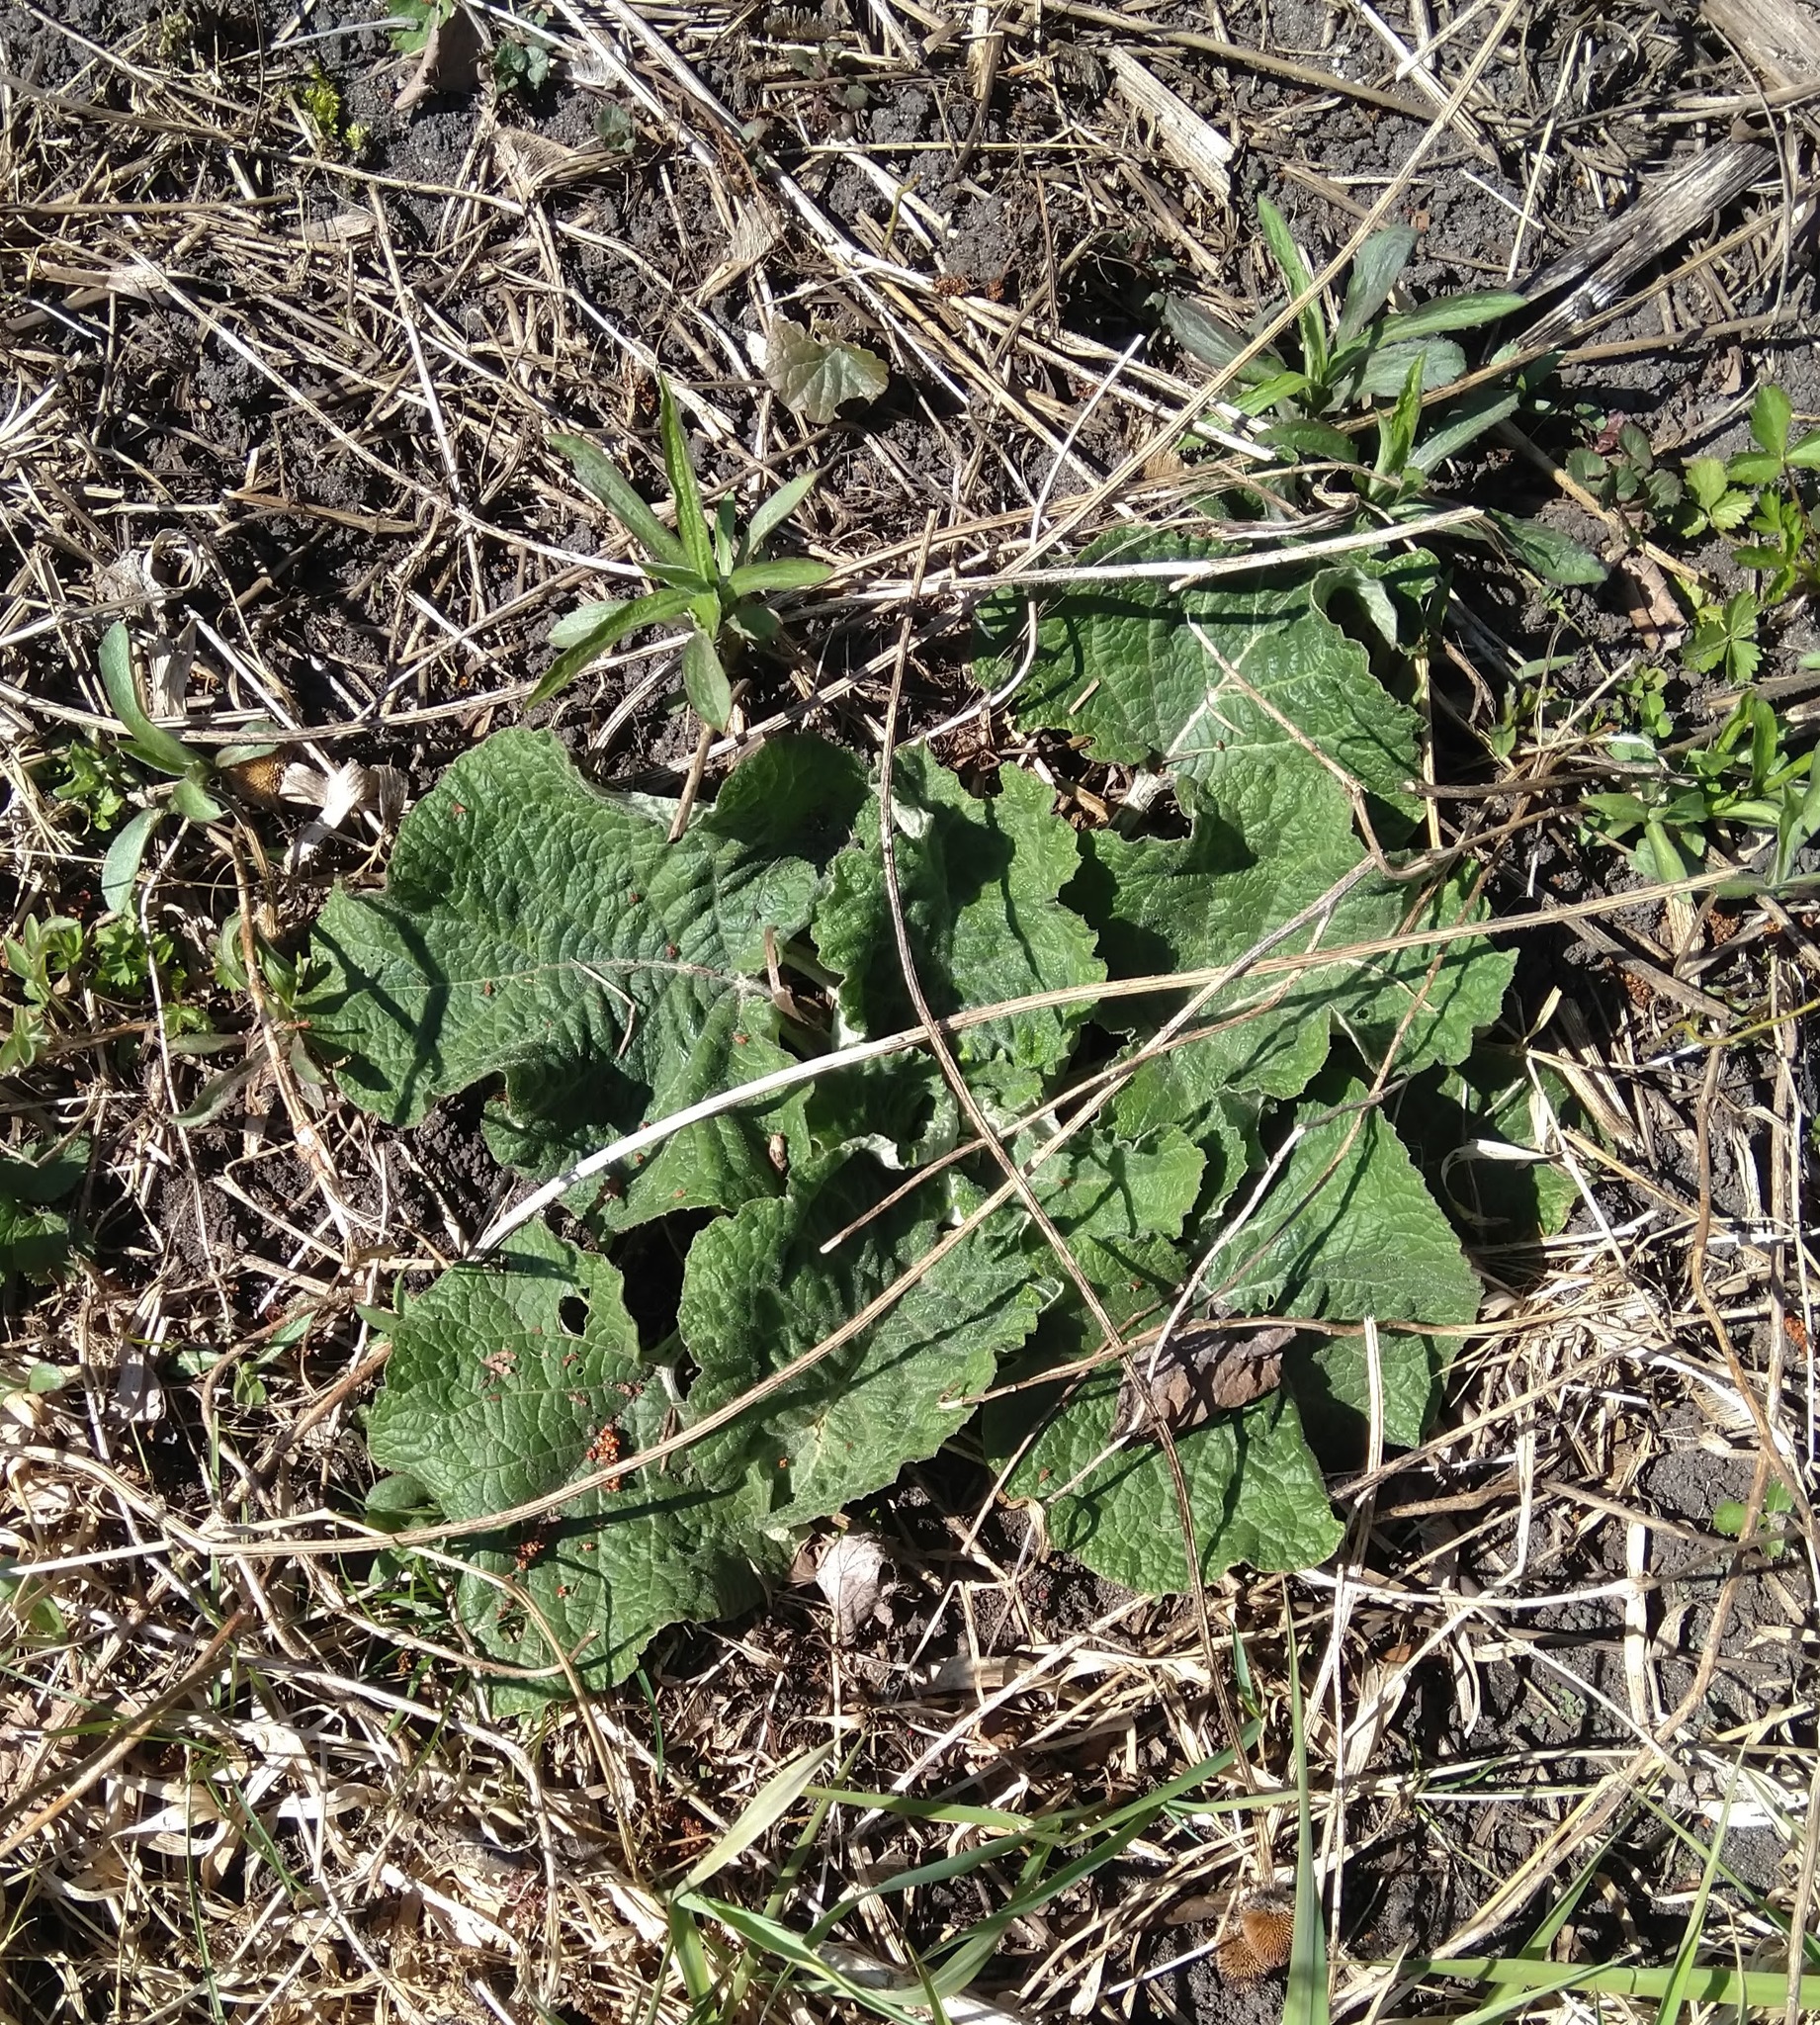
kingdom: Plantae
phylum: Tracheophyta
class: Magnoliopsida
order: Asterales
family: Asteraceae
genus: Arctium
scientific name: Arctium
